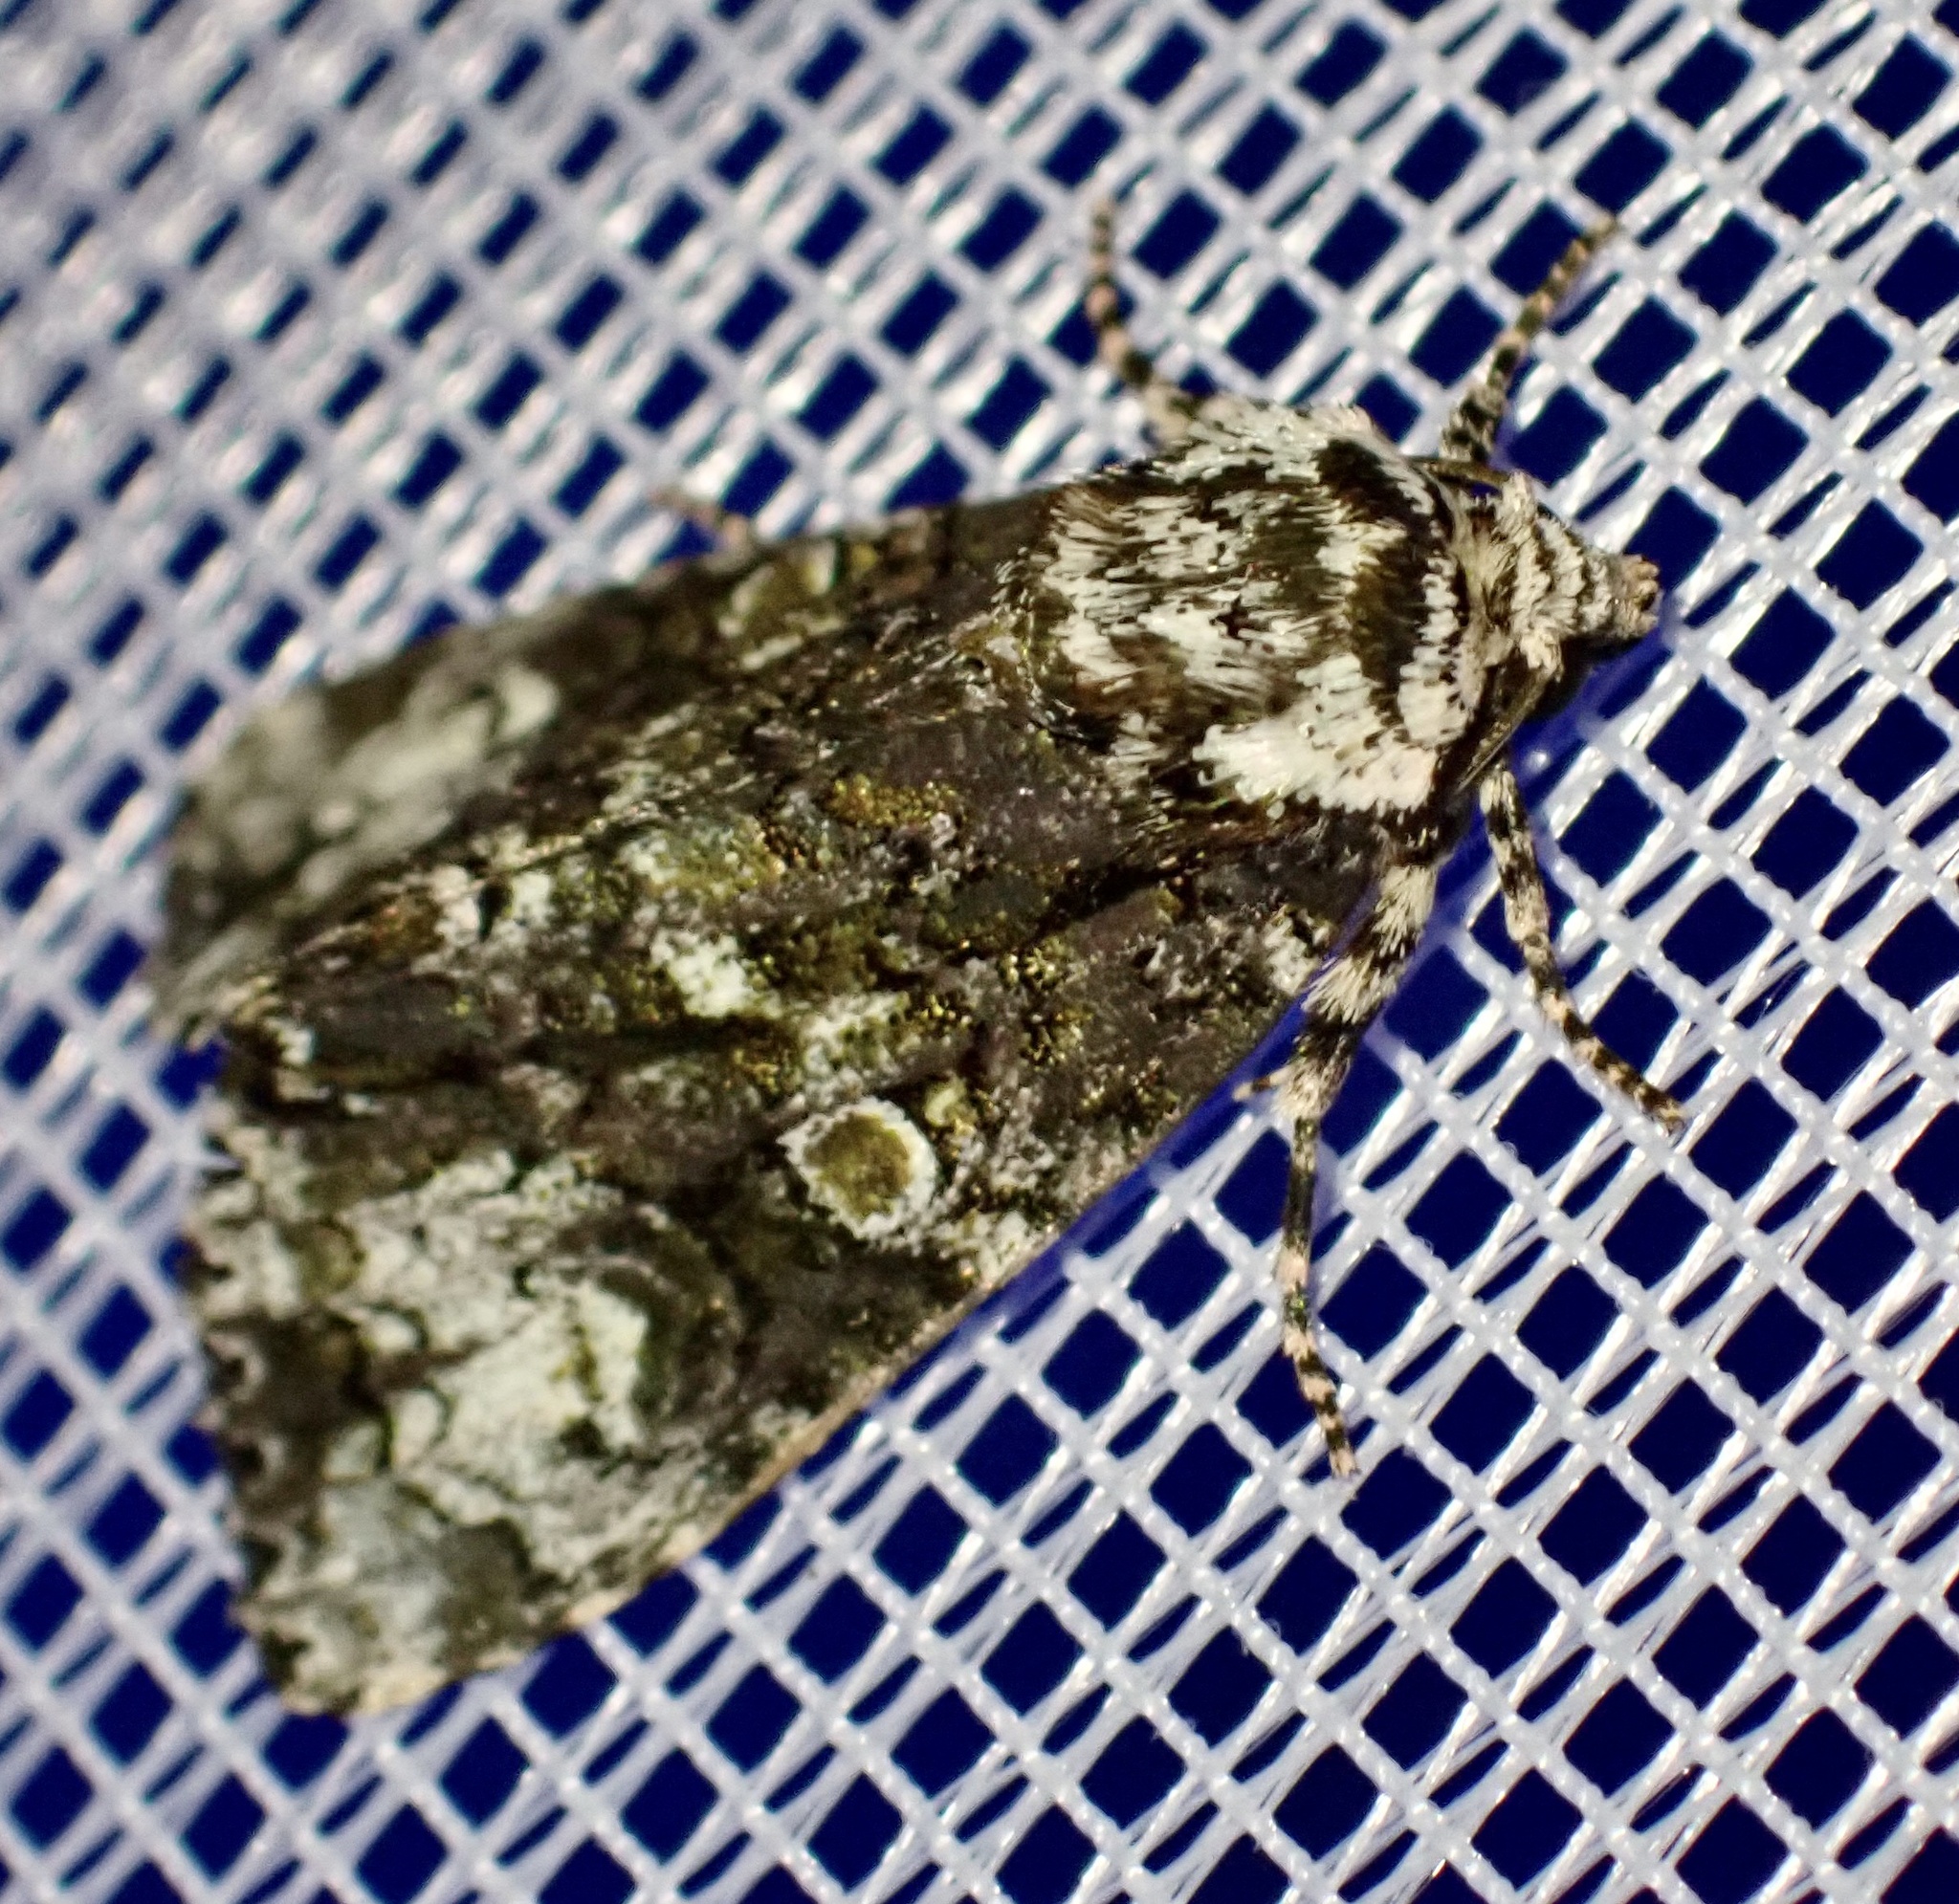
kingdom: Animalia
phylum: Arthropoda
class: Insecta
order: Lepidoptera
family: Noctuidae
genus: Craniophora
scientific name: Craniophora ligustri
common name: Coronet
